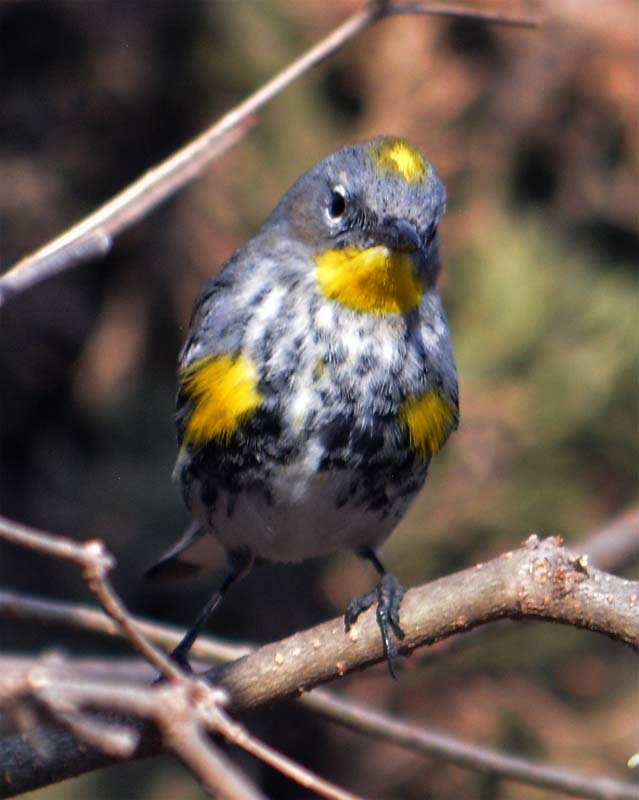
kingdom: Animalia
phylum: Chordata
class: Aves
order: Passeriformes
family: Parulidae
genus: Setophaga
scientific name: Setophaga auduboni
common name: Audubon's warbler
